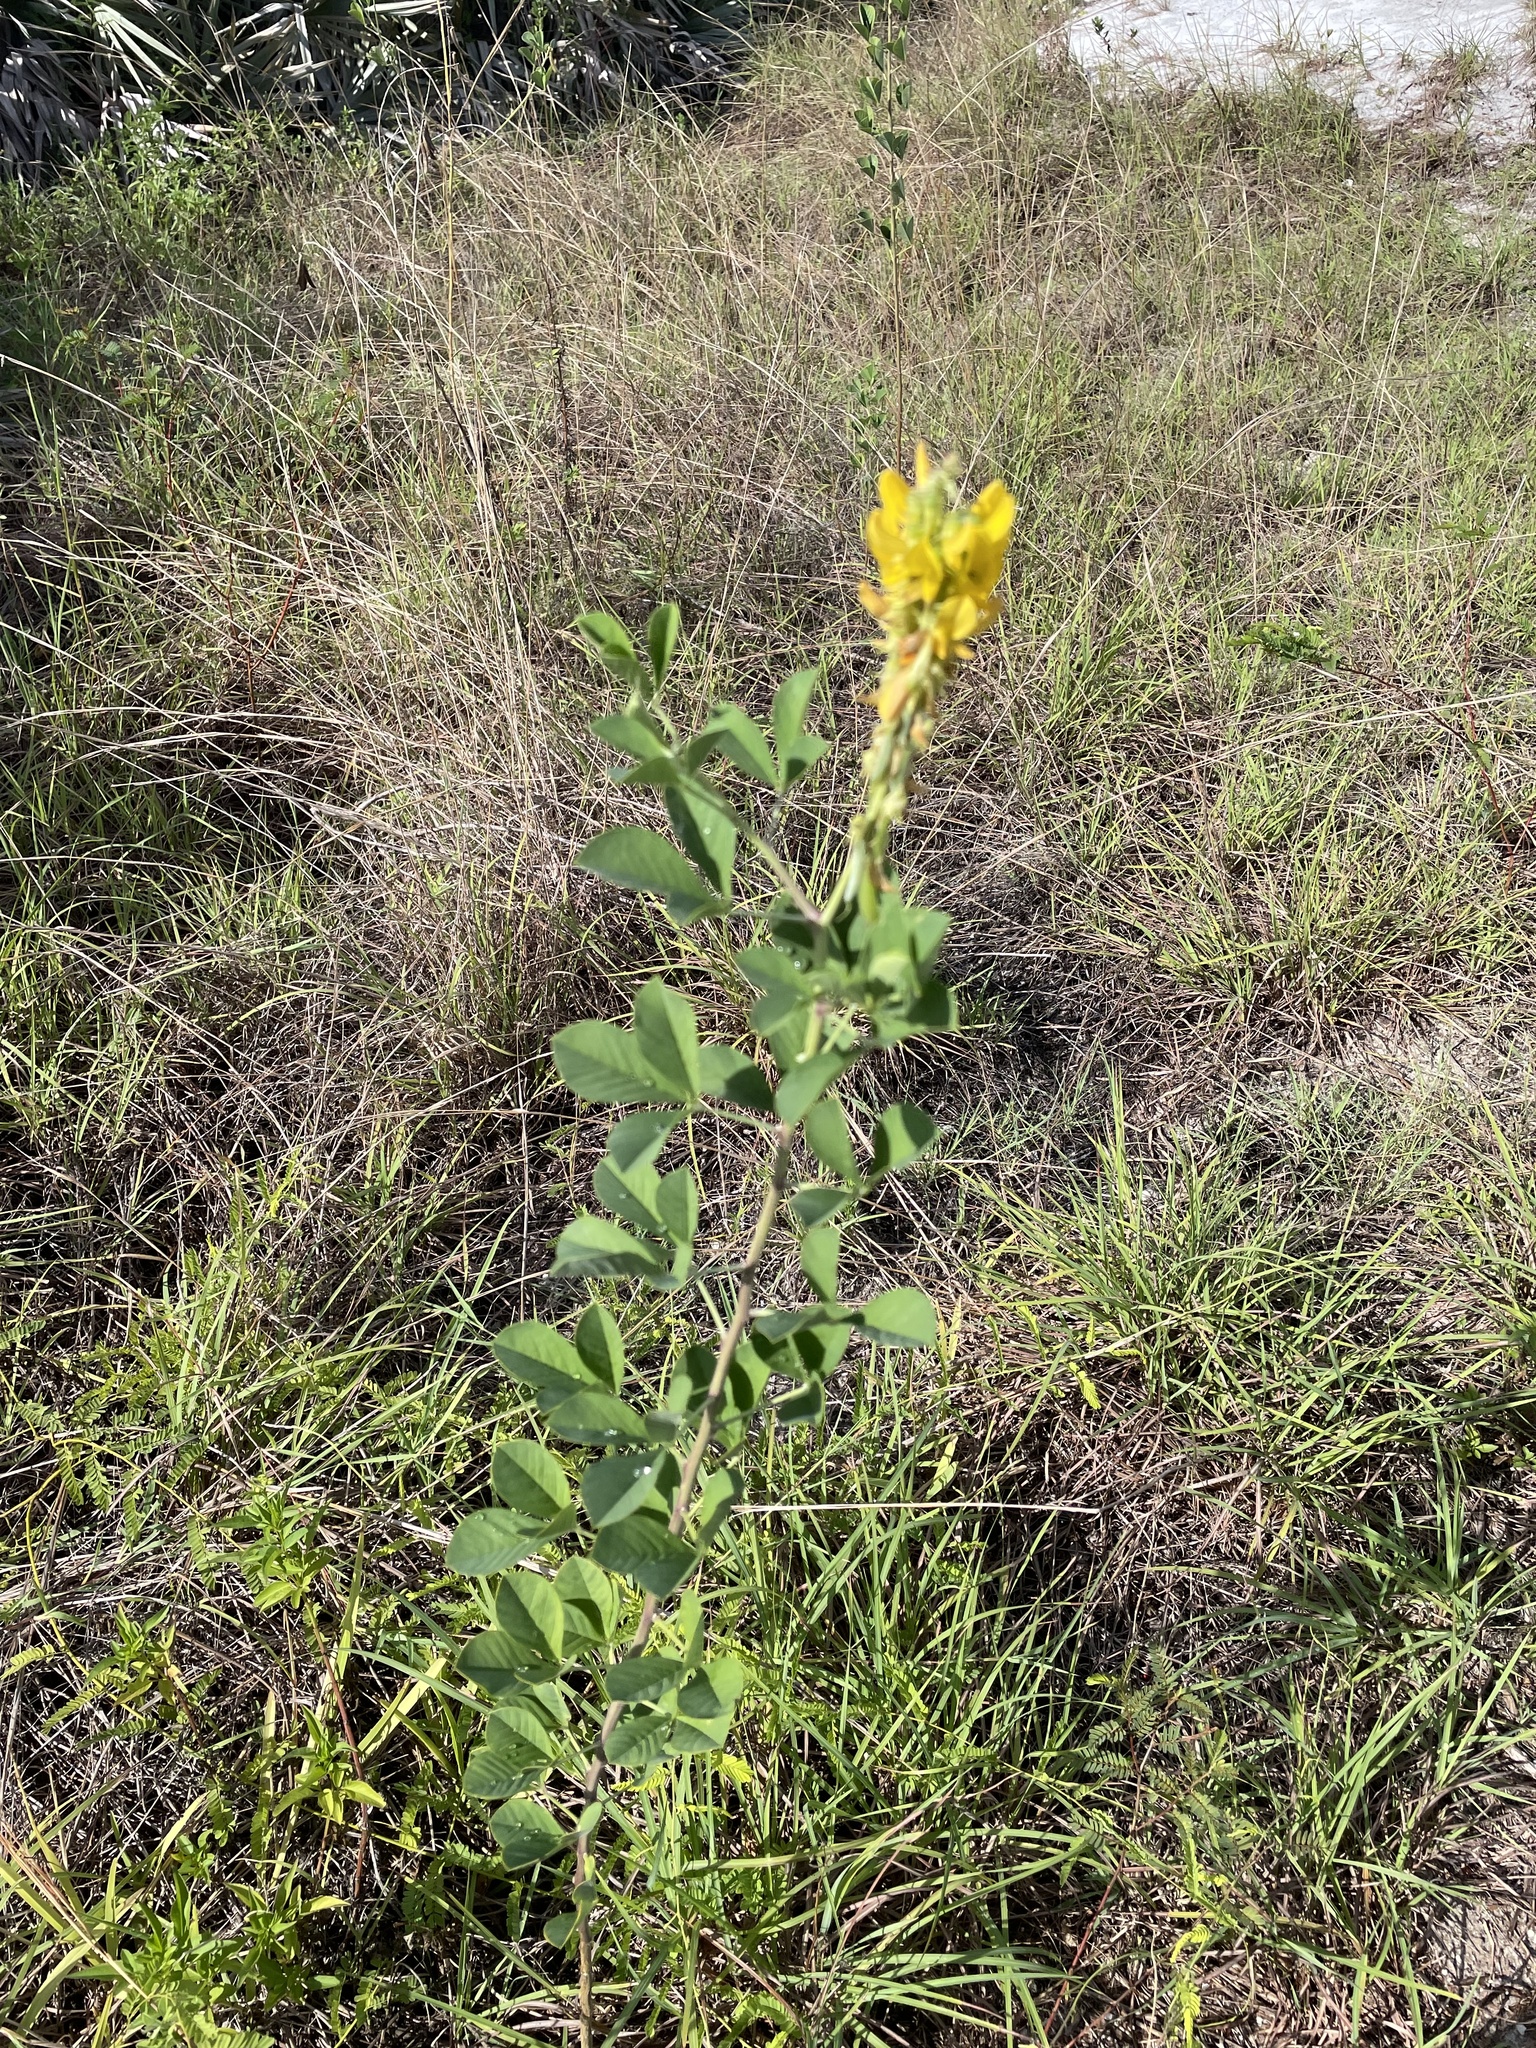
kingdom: Plantae
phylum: Tracheophyta
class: Magnoliopsida
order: Fabales
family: Fabaceae
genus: Crotalaria
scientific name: Crotalaria pallida
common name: Smooth rattlebox
